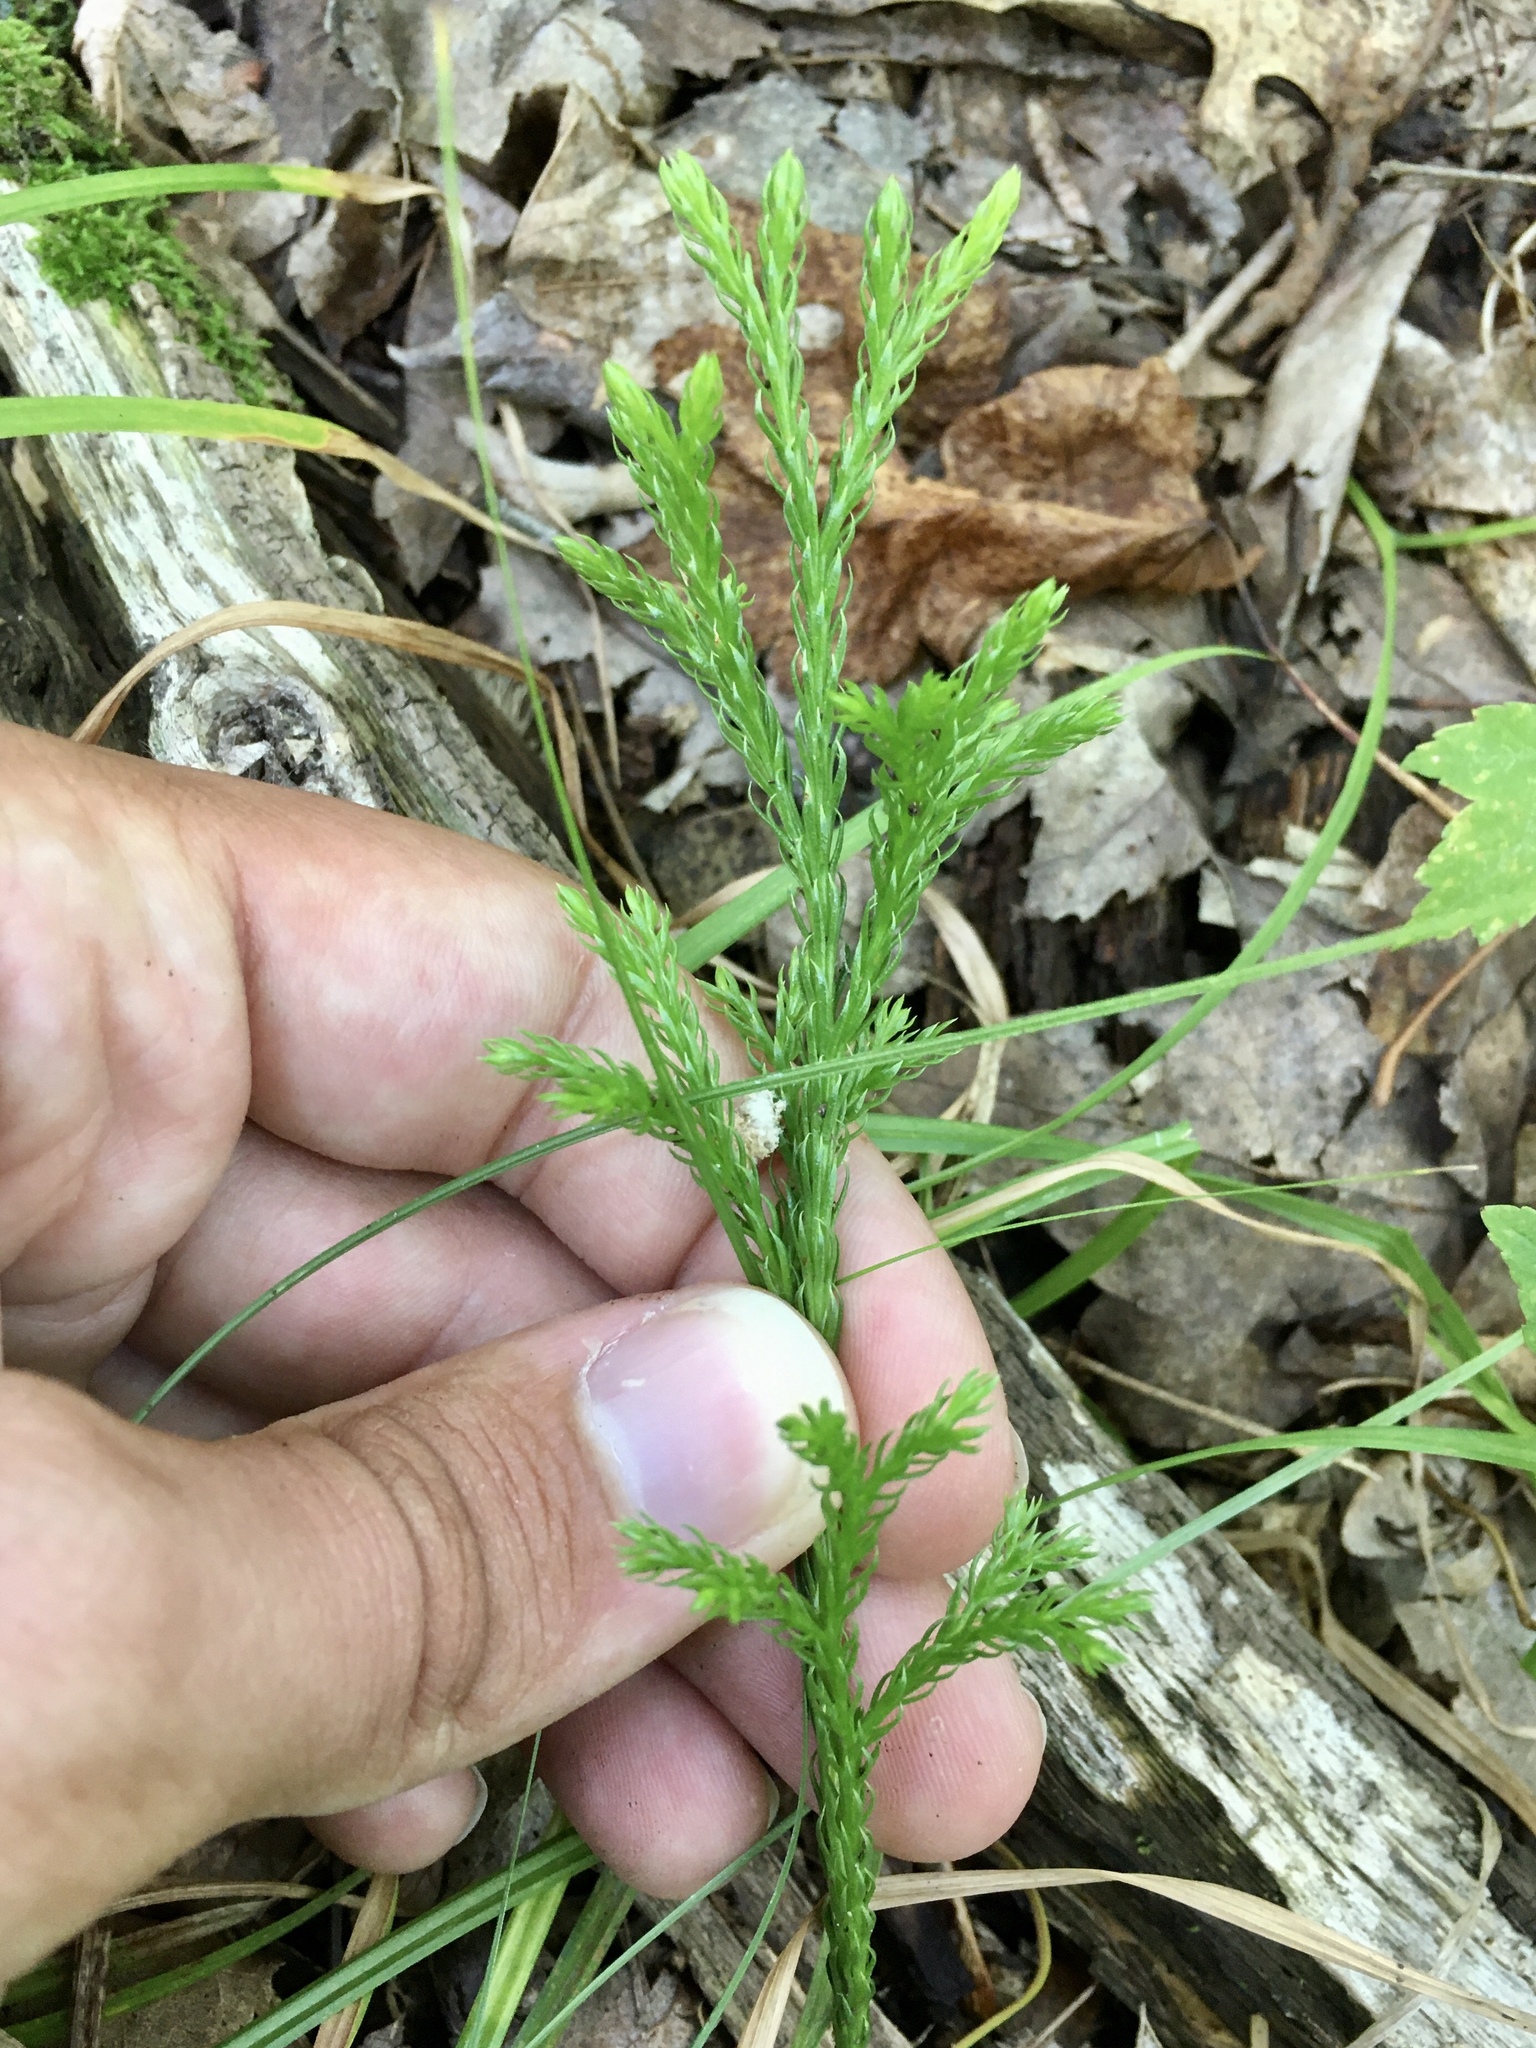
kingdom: Plantae
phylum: Tracheophyta
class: Lycopodiopsida
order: Lycopodiales
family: Lycopodiaceae
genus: Dendrolycopodium
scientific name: Dendrolycopodium hickeyi
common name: Hickey's clubmoss
